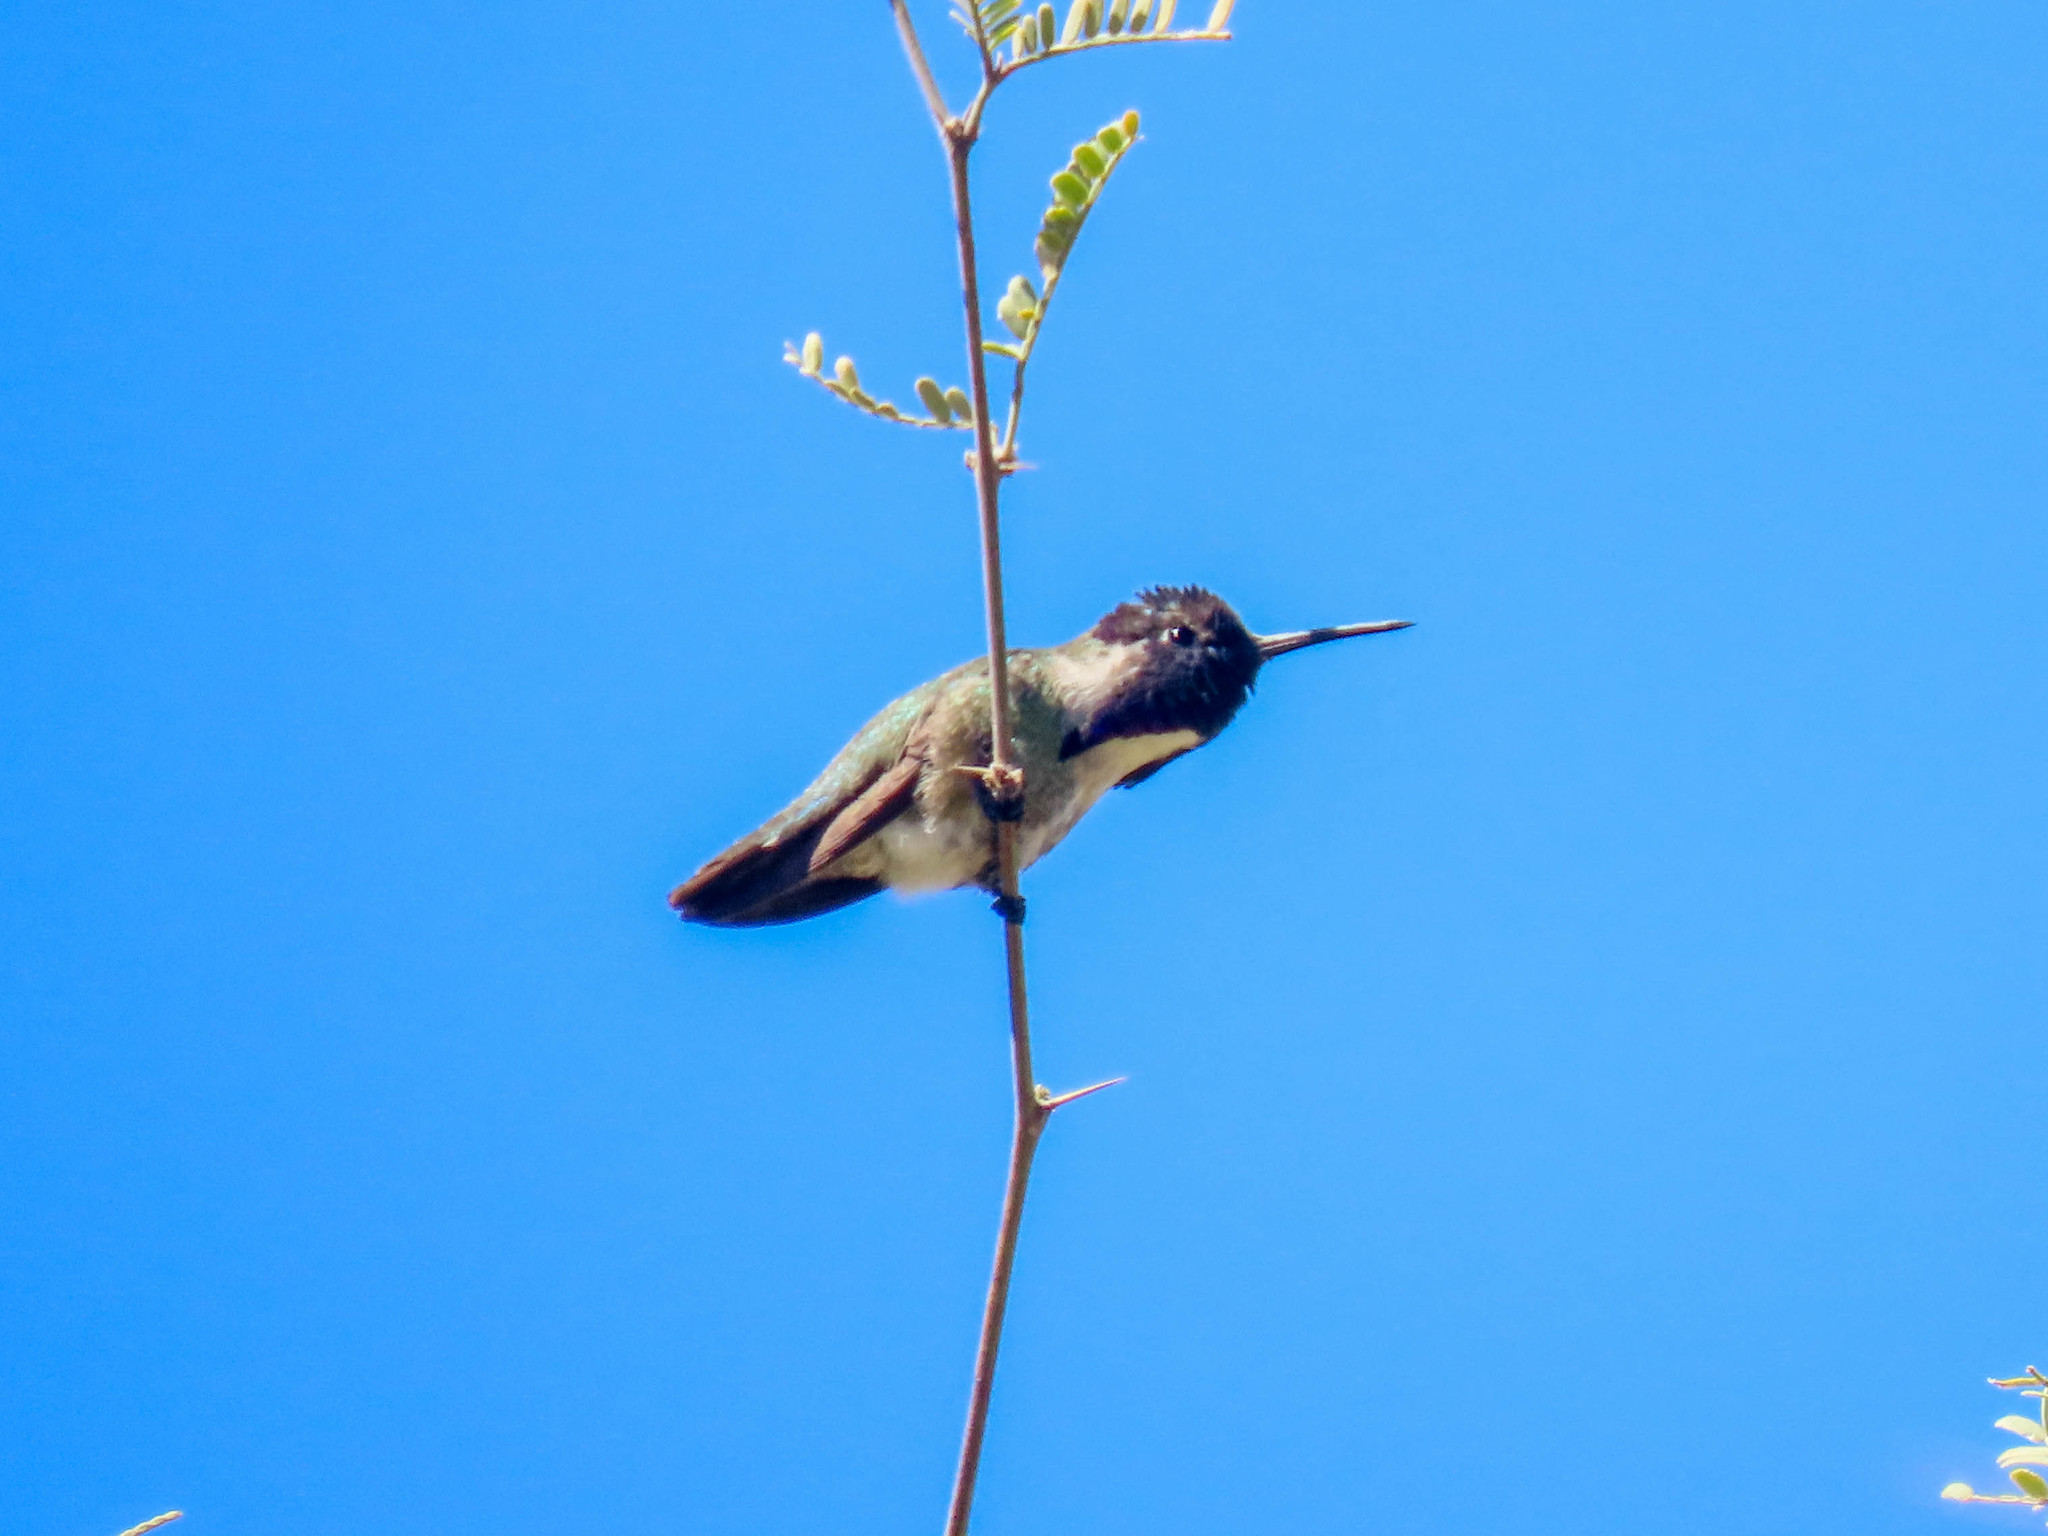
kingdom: Animalia
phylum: Chordata
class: Aves
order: Apodiformes
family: Trochilidae
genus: Calypte
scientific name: Calypte costae
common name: Costa's hummingbird
